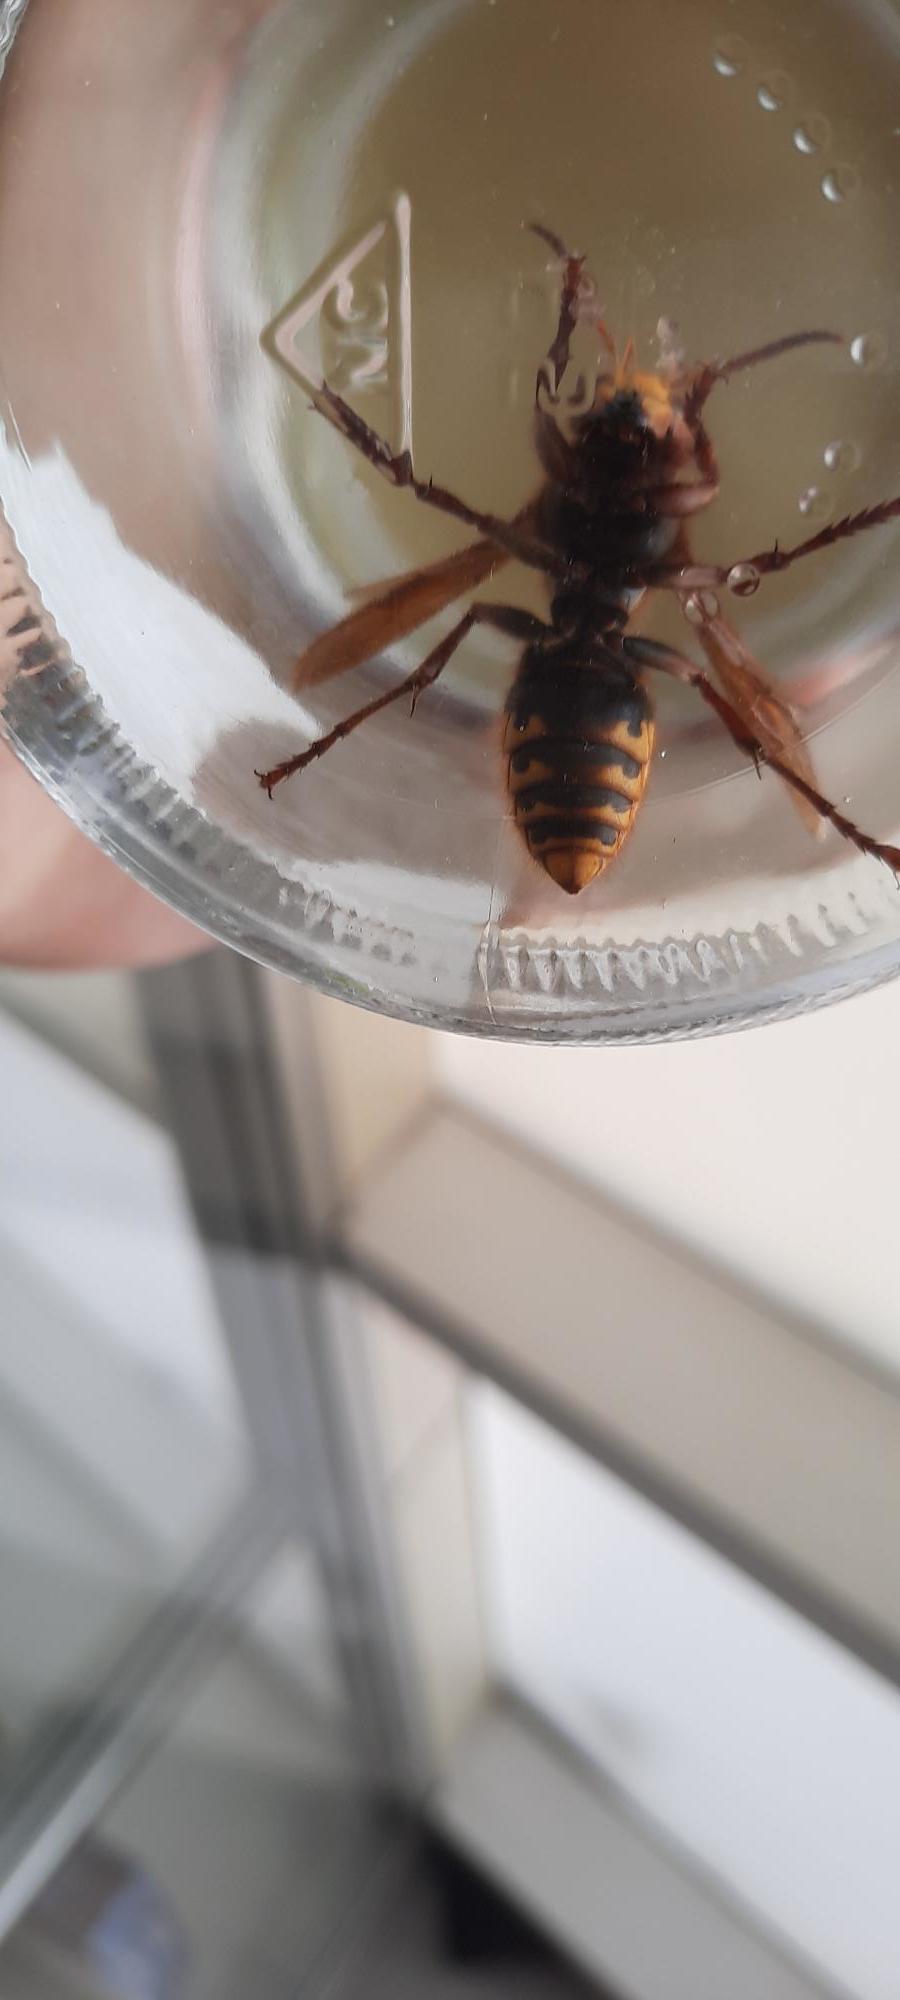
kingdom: Animalia
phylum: Arthropoda
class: Insecta
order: Hymenoptera
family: Vespidae
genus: Vespa
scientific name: Vespa crabro
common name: Hornet
